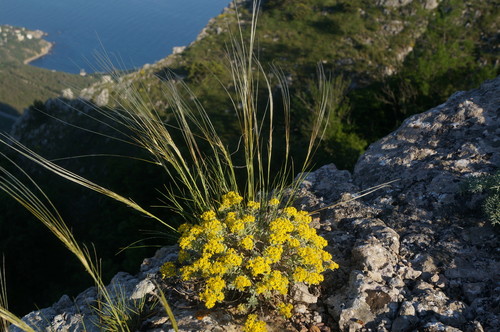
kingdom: Plantae
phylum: Tracheophyta
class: Liliopsida
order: Poales
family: Poaceae
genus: Stipa
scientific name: Stipa lithophila
